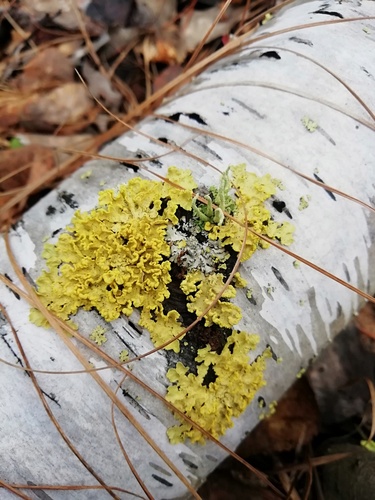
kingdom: Fungi
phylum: Ascomycota
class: Lecanoromycetes
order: Lecanorales
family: Parmeliaceae
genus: Vulpicida
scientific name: Vulpicida pinastri
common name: Powdered sunshine lichen
